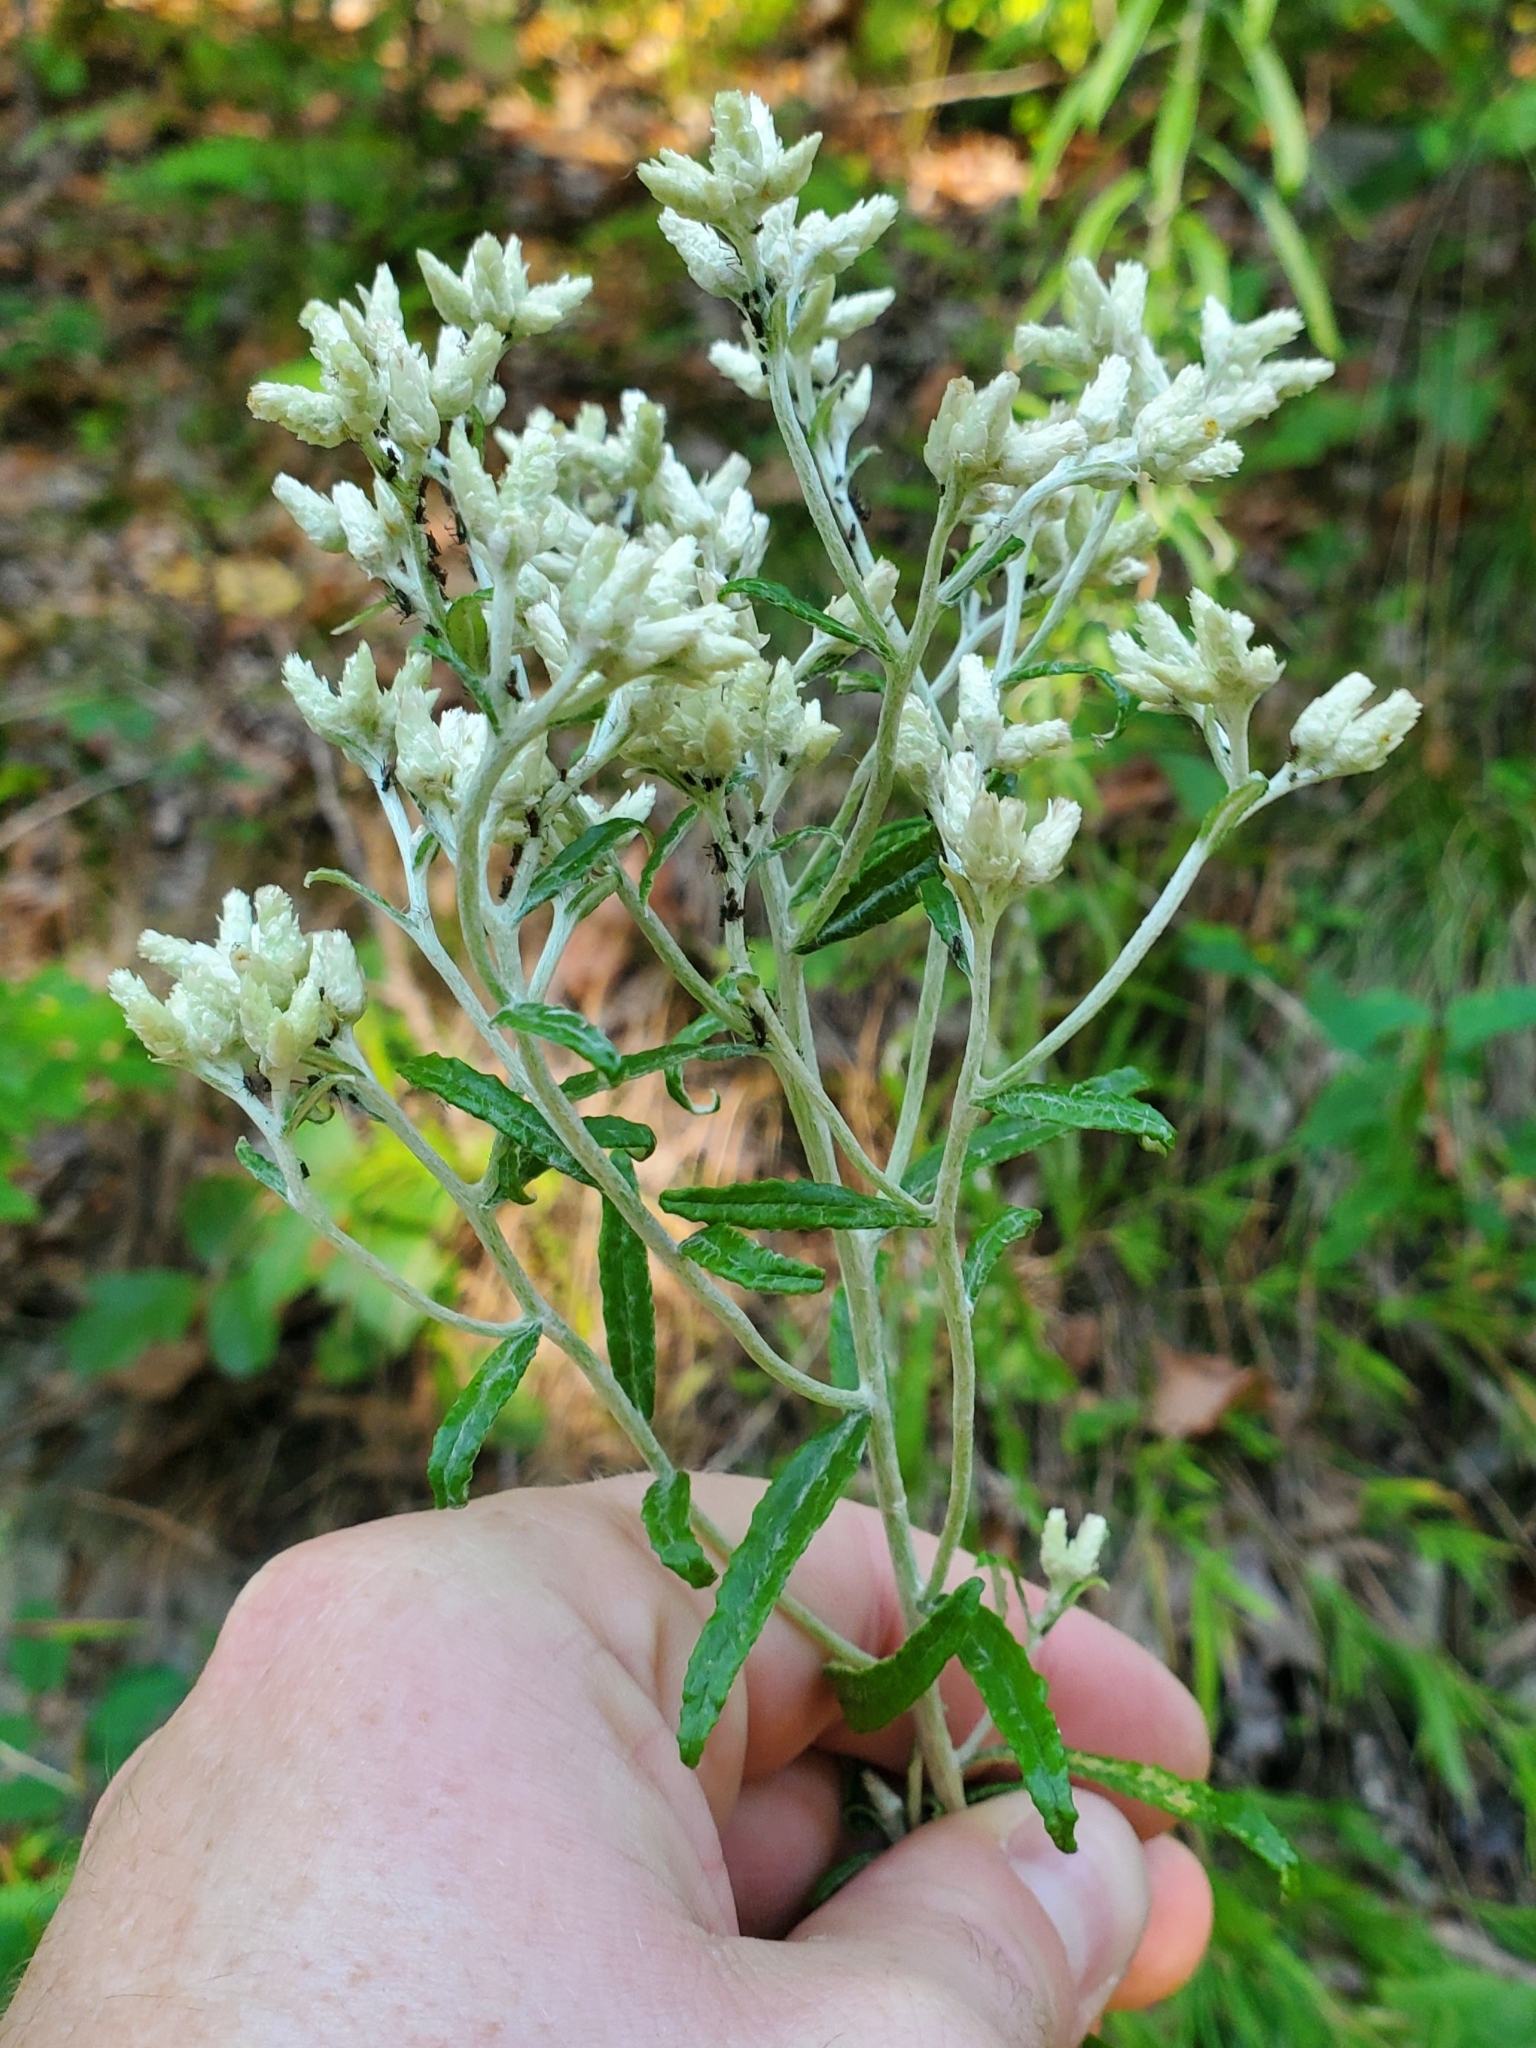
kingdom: Plantae
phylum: Tracheophyta
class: Magnoliopsida
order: Asterales
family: Asteraceae
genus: Pseudognaphalium
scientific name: Pseudognaphalium obtusifolium
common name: Eastern rabbit-tobacco
